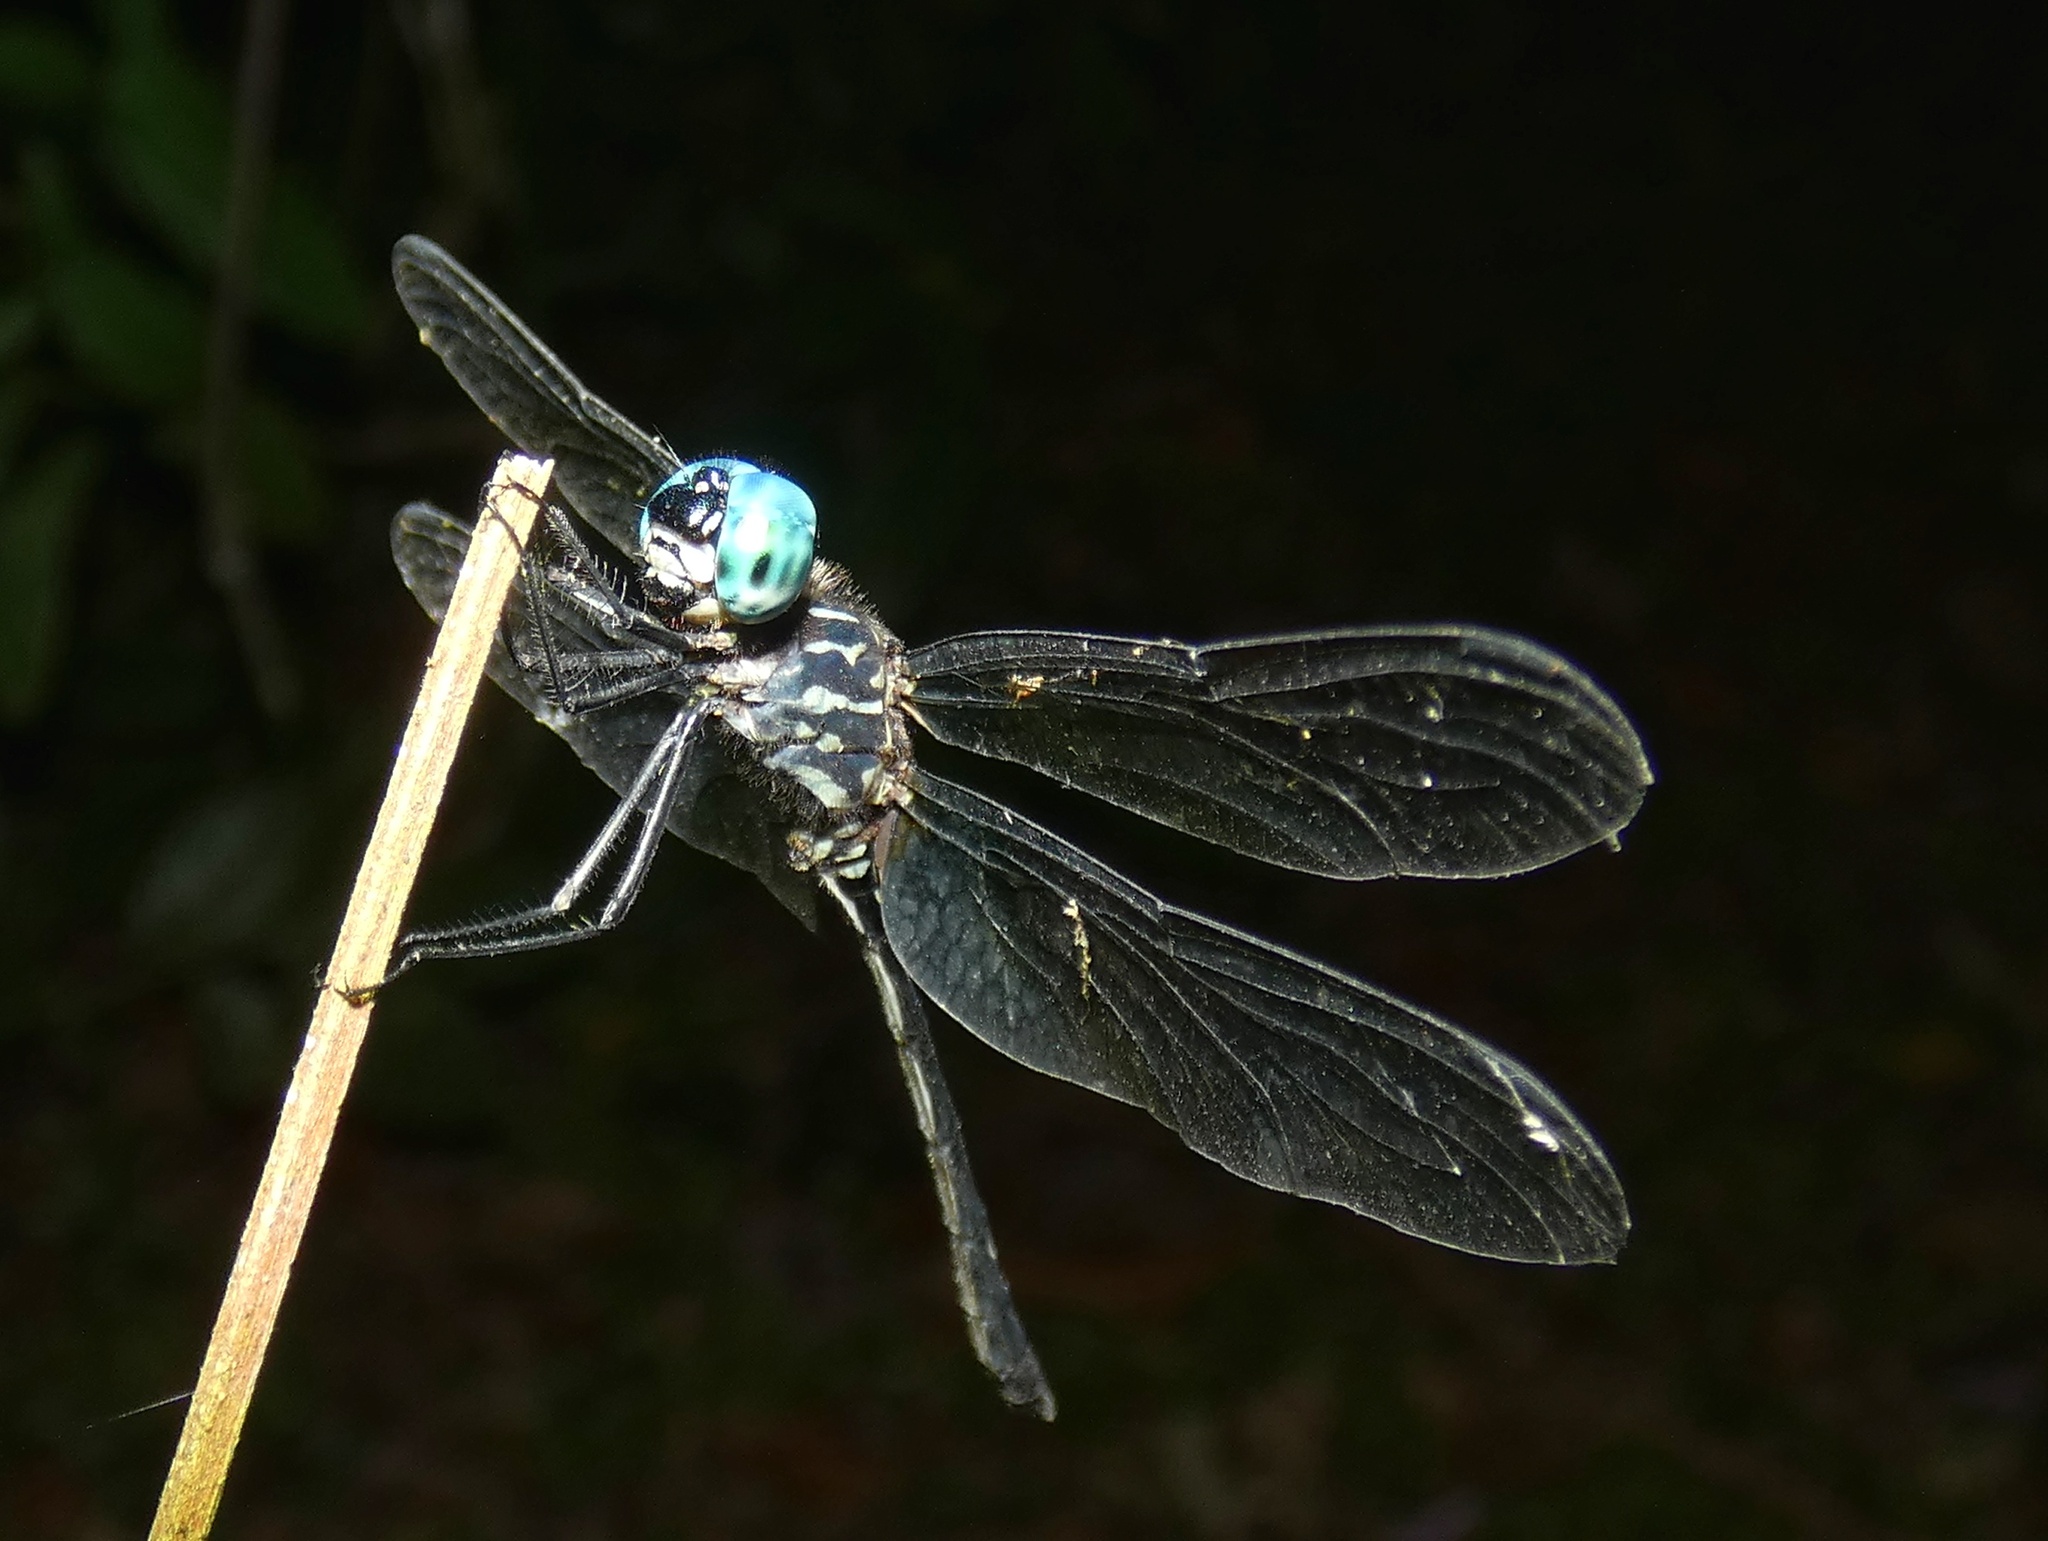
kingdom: Animalia
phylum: Arthropoda
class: Insecta
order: Odonata
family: Libellulidae
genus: Dythemis
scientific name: Dythemis nigra
